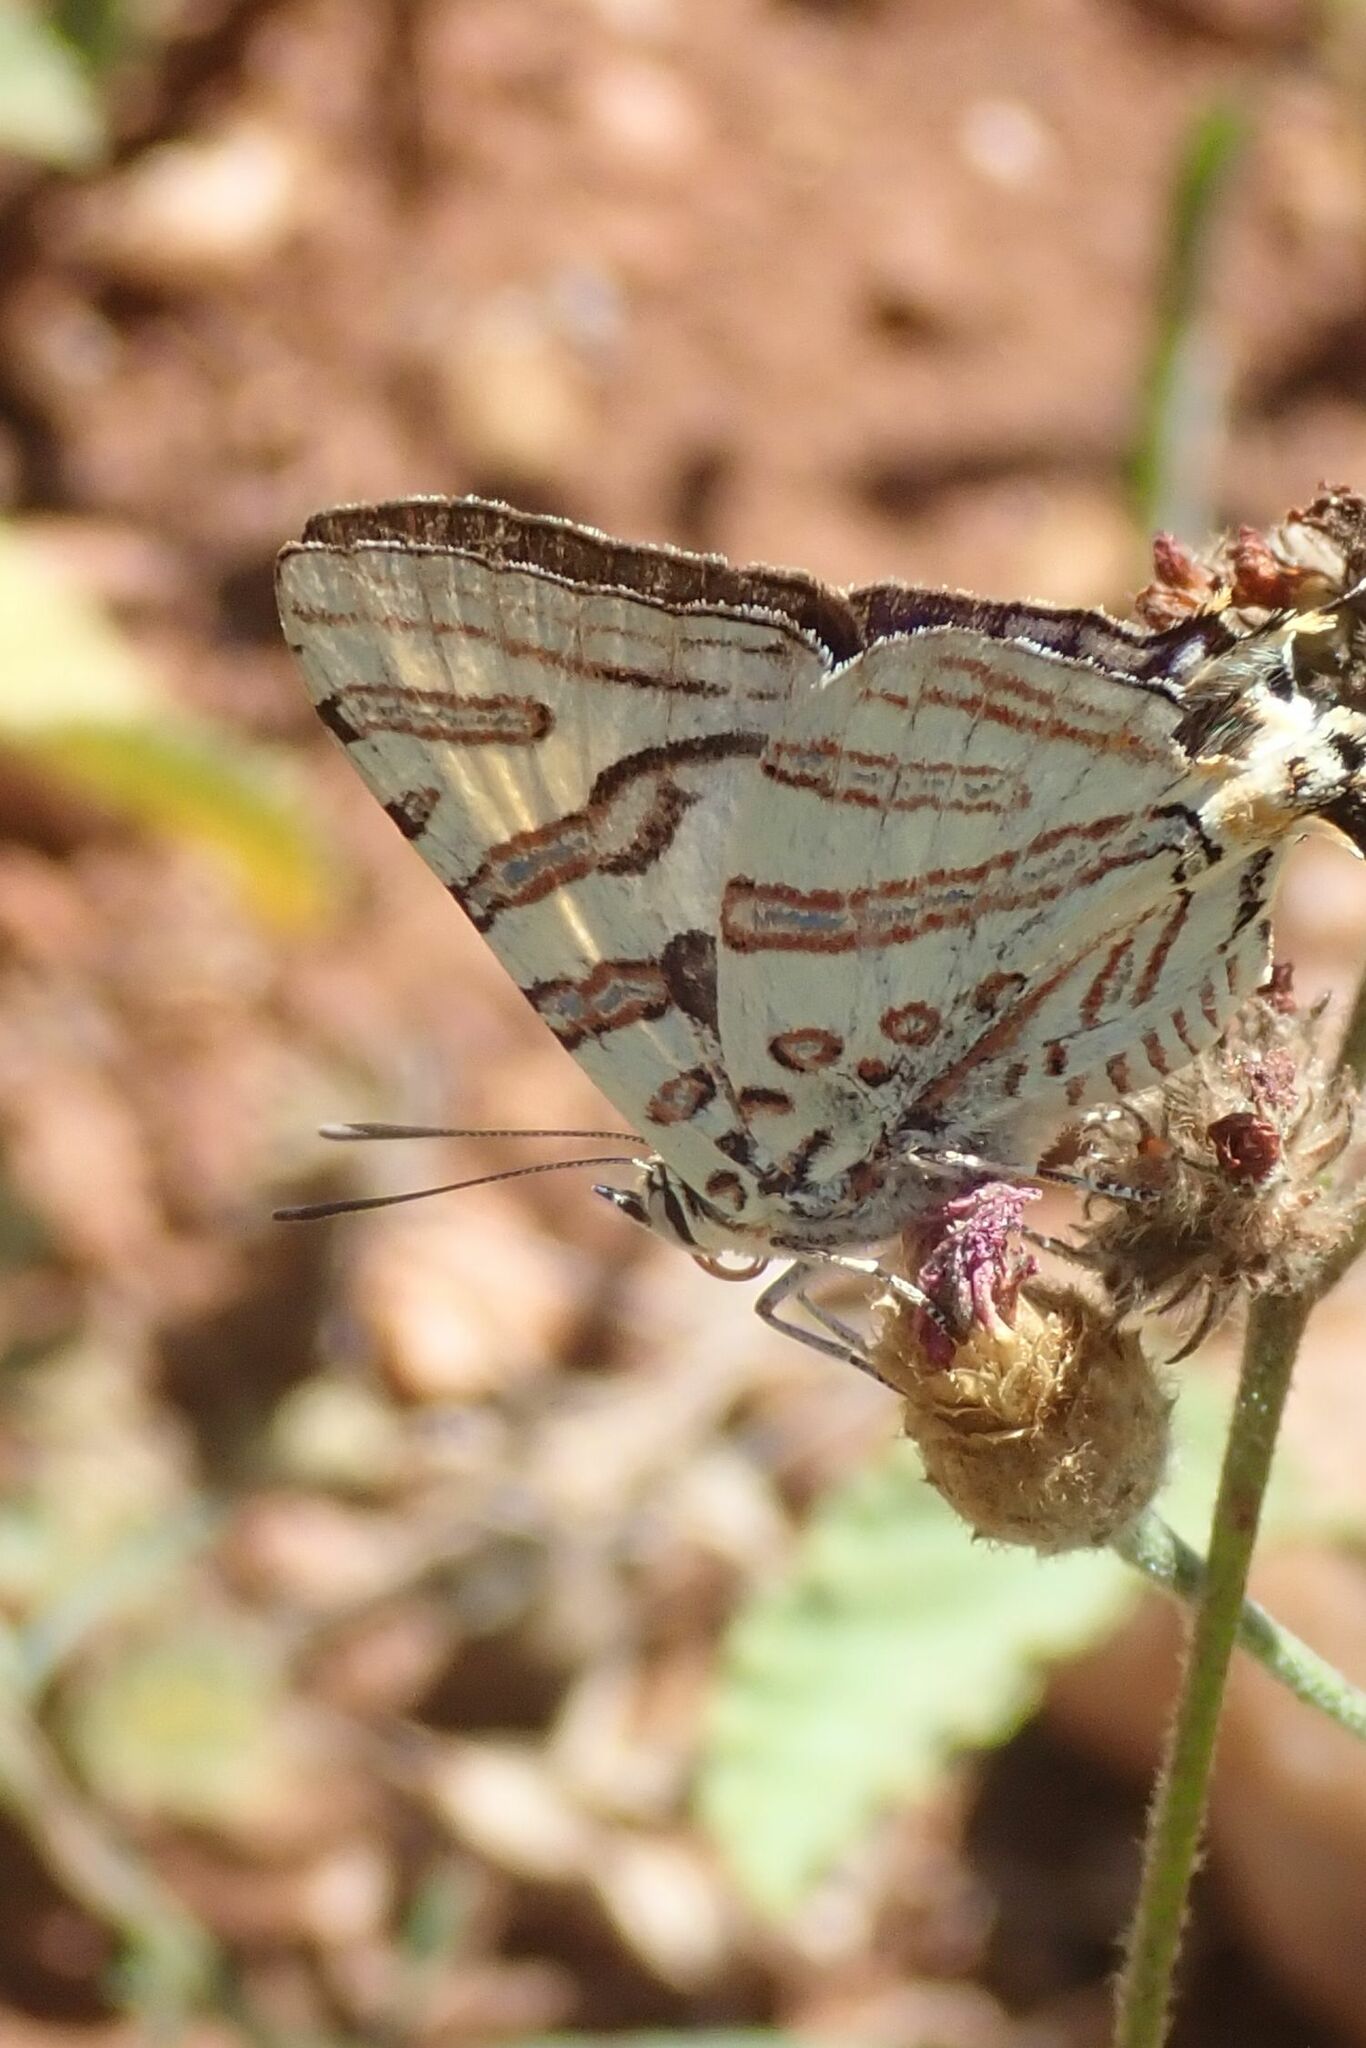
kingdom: Animalia
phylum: Arthropoda
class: Insecta
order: Lepidoptera
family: Lycaenidae
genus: Spindasis
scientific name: Spindasis natalensis
